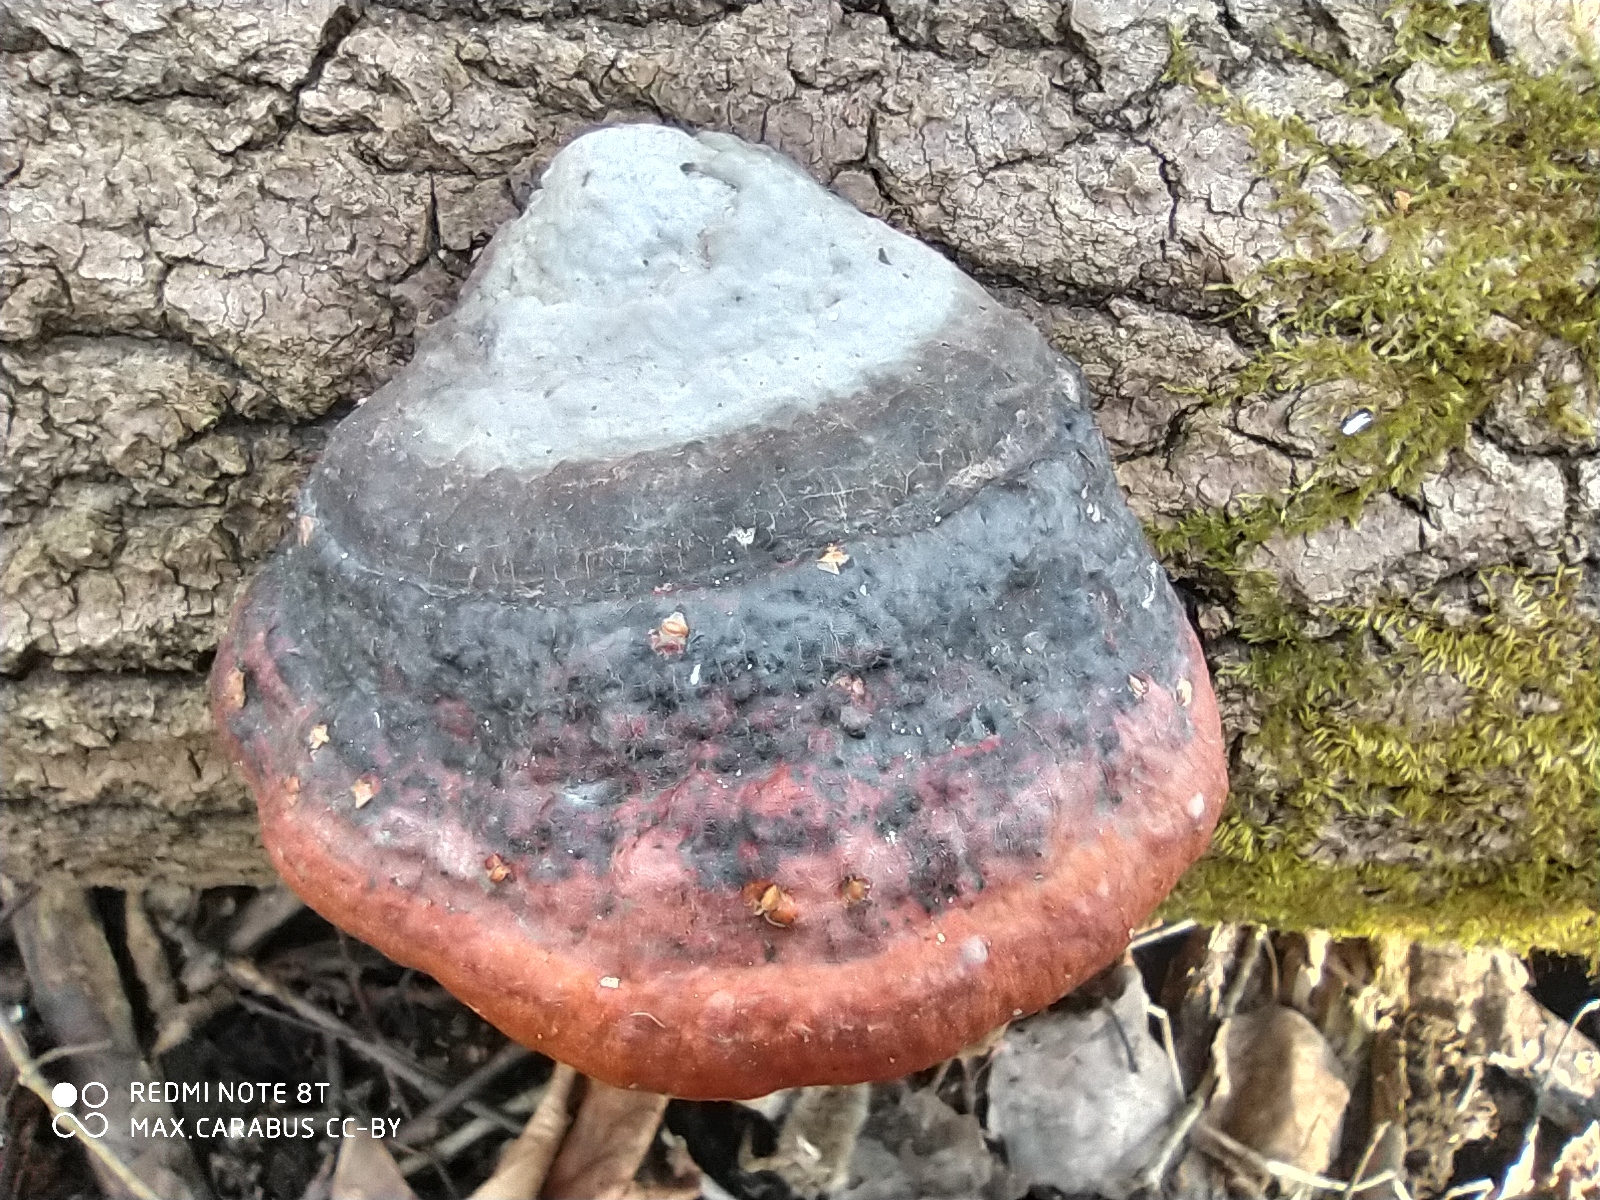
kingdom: Fungi
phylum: Basidiomycota
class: Agaricomycetes
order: Polyporales
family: Fomitopsidaceae
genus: Fomitopsis
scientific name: Fomitopsis pinicola
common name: Red-belted bracket
